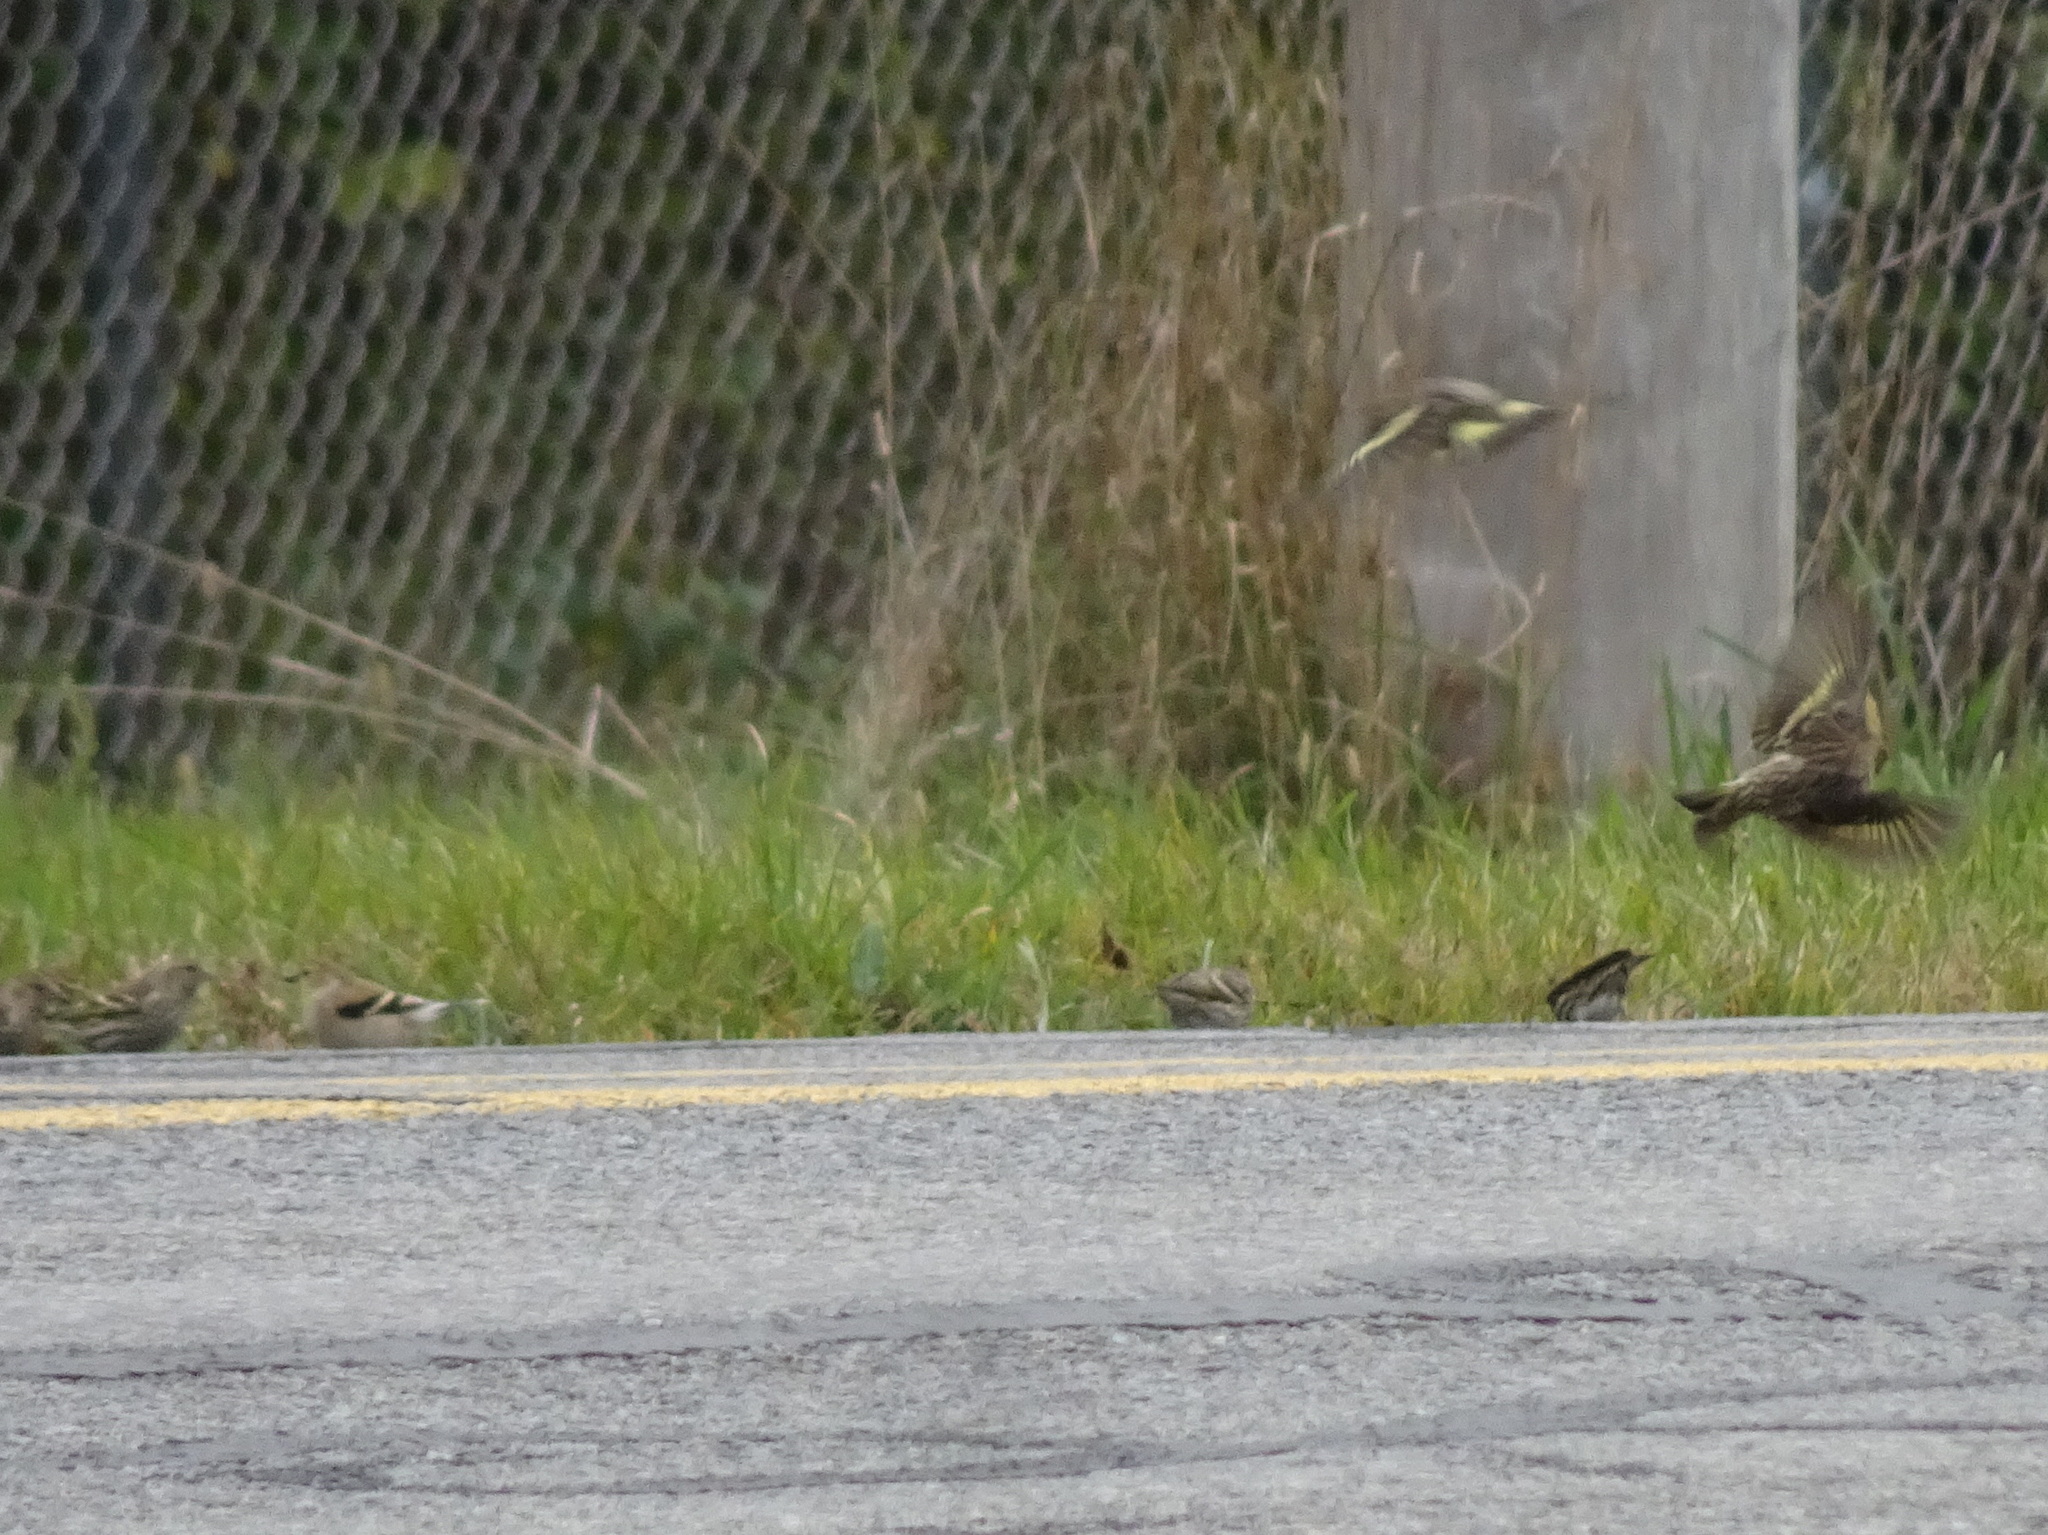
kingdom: Animalia
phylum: Chordata
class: Aves
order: Passeriformes
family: Fringillidae
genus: Spinus
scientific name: Spinus pinus
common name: Pine siskin
